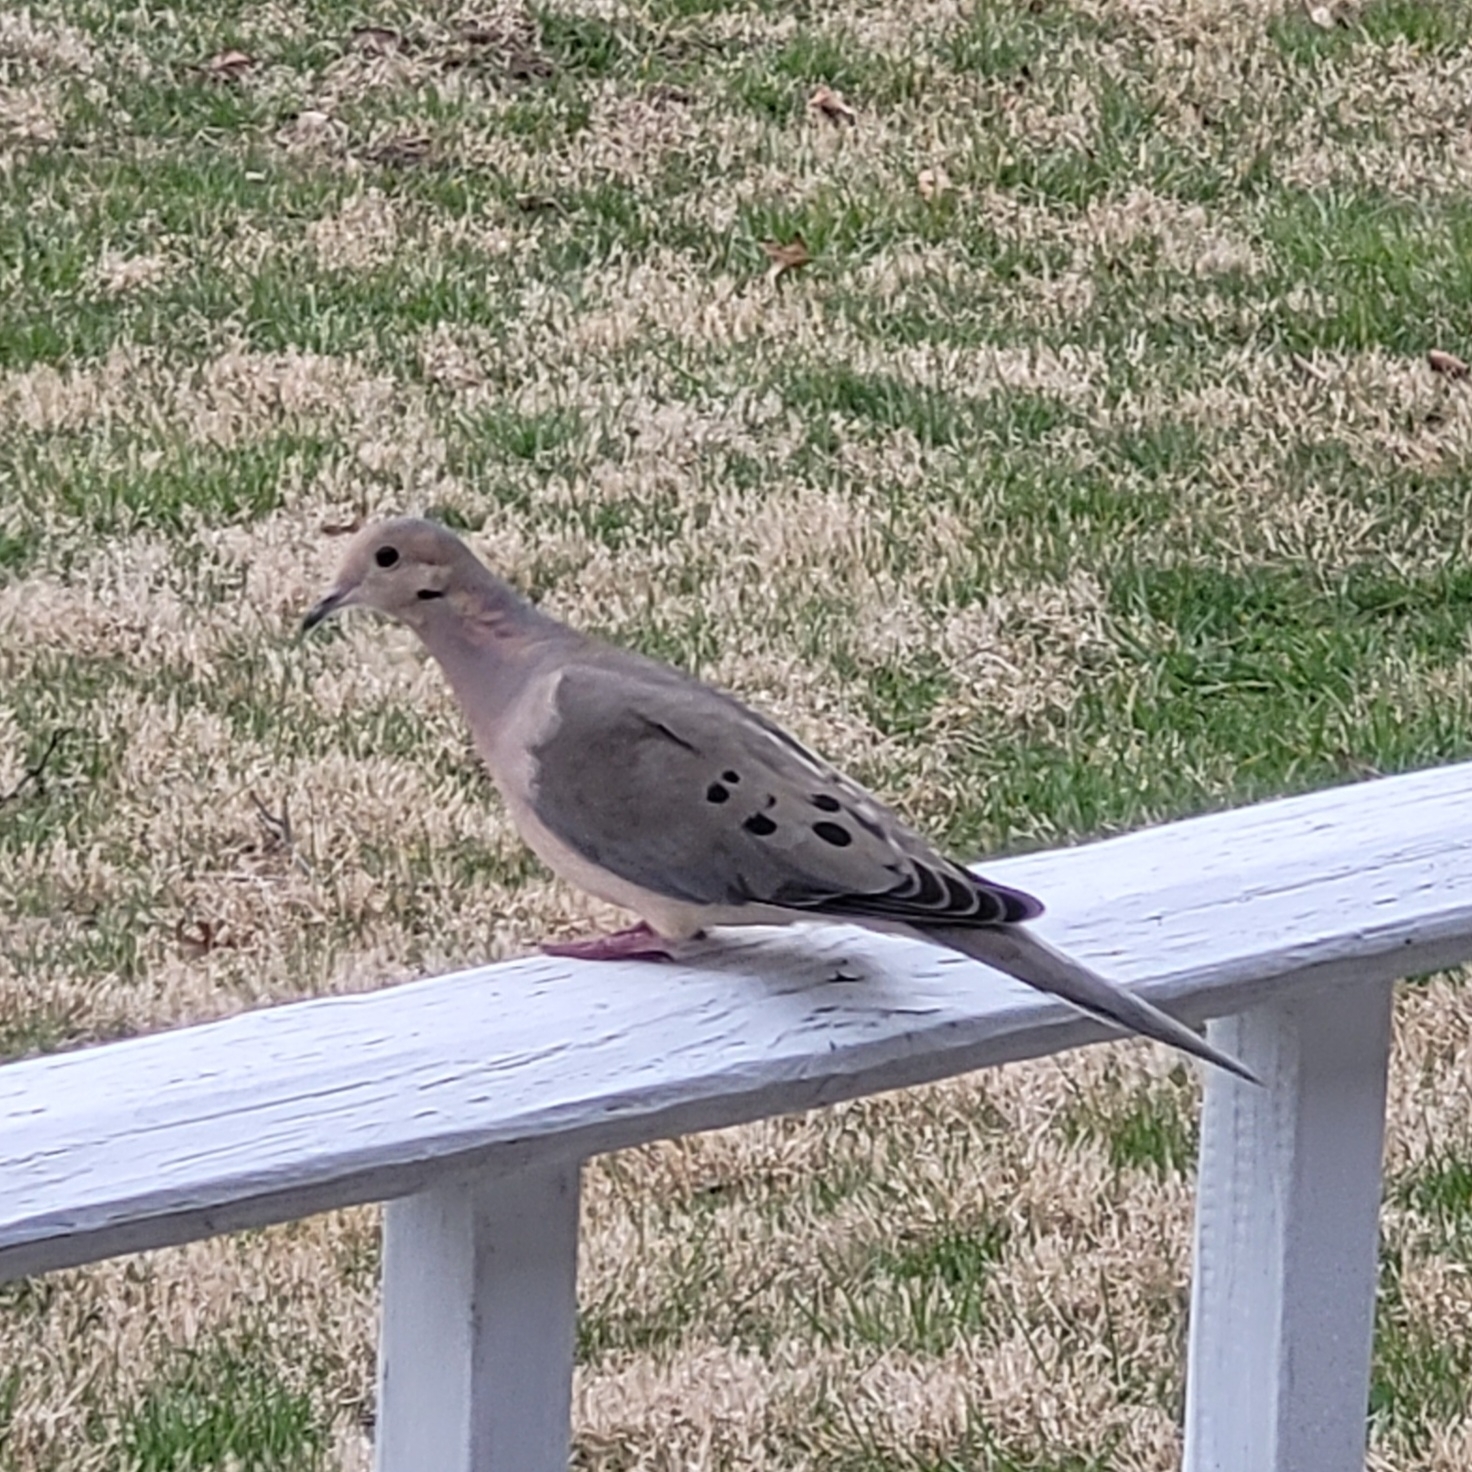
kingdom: Animalia
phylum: Chordata
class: Aves
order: Columbiformes
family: Columbidae
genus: Zenaida
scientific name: Zenaida macroura
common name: Mourning dove
